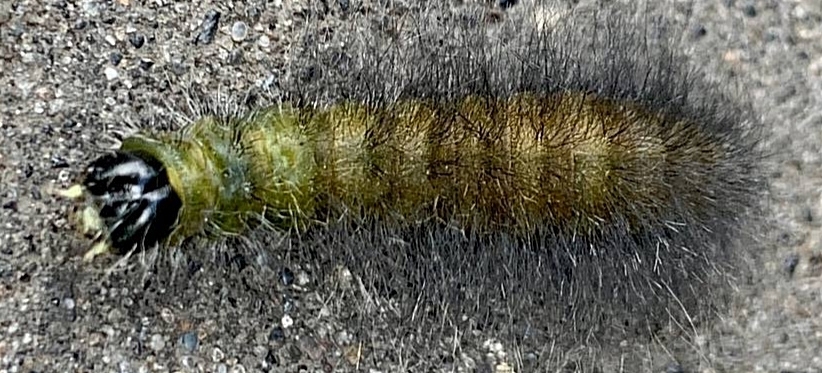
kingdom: Animalia
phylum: Arthropoda
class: Insecta
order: Lepidoptera
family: Noctuidae
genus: Acronicta
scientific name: Acronicta leporina
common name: Miller
